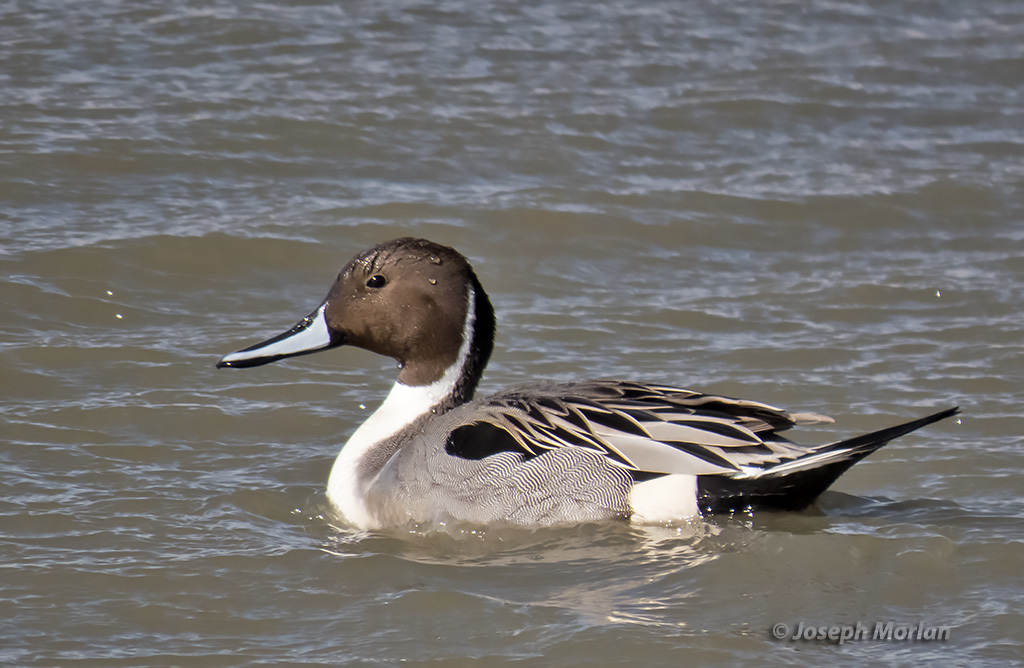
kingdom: Animalia
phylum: Chordata
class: Aves
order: Anseriformes
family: Anatidae
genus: Anas
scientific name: Anas acuta
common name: Northern pintail
